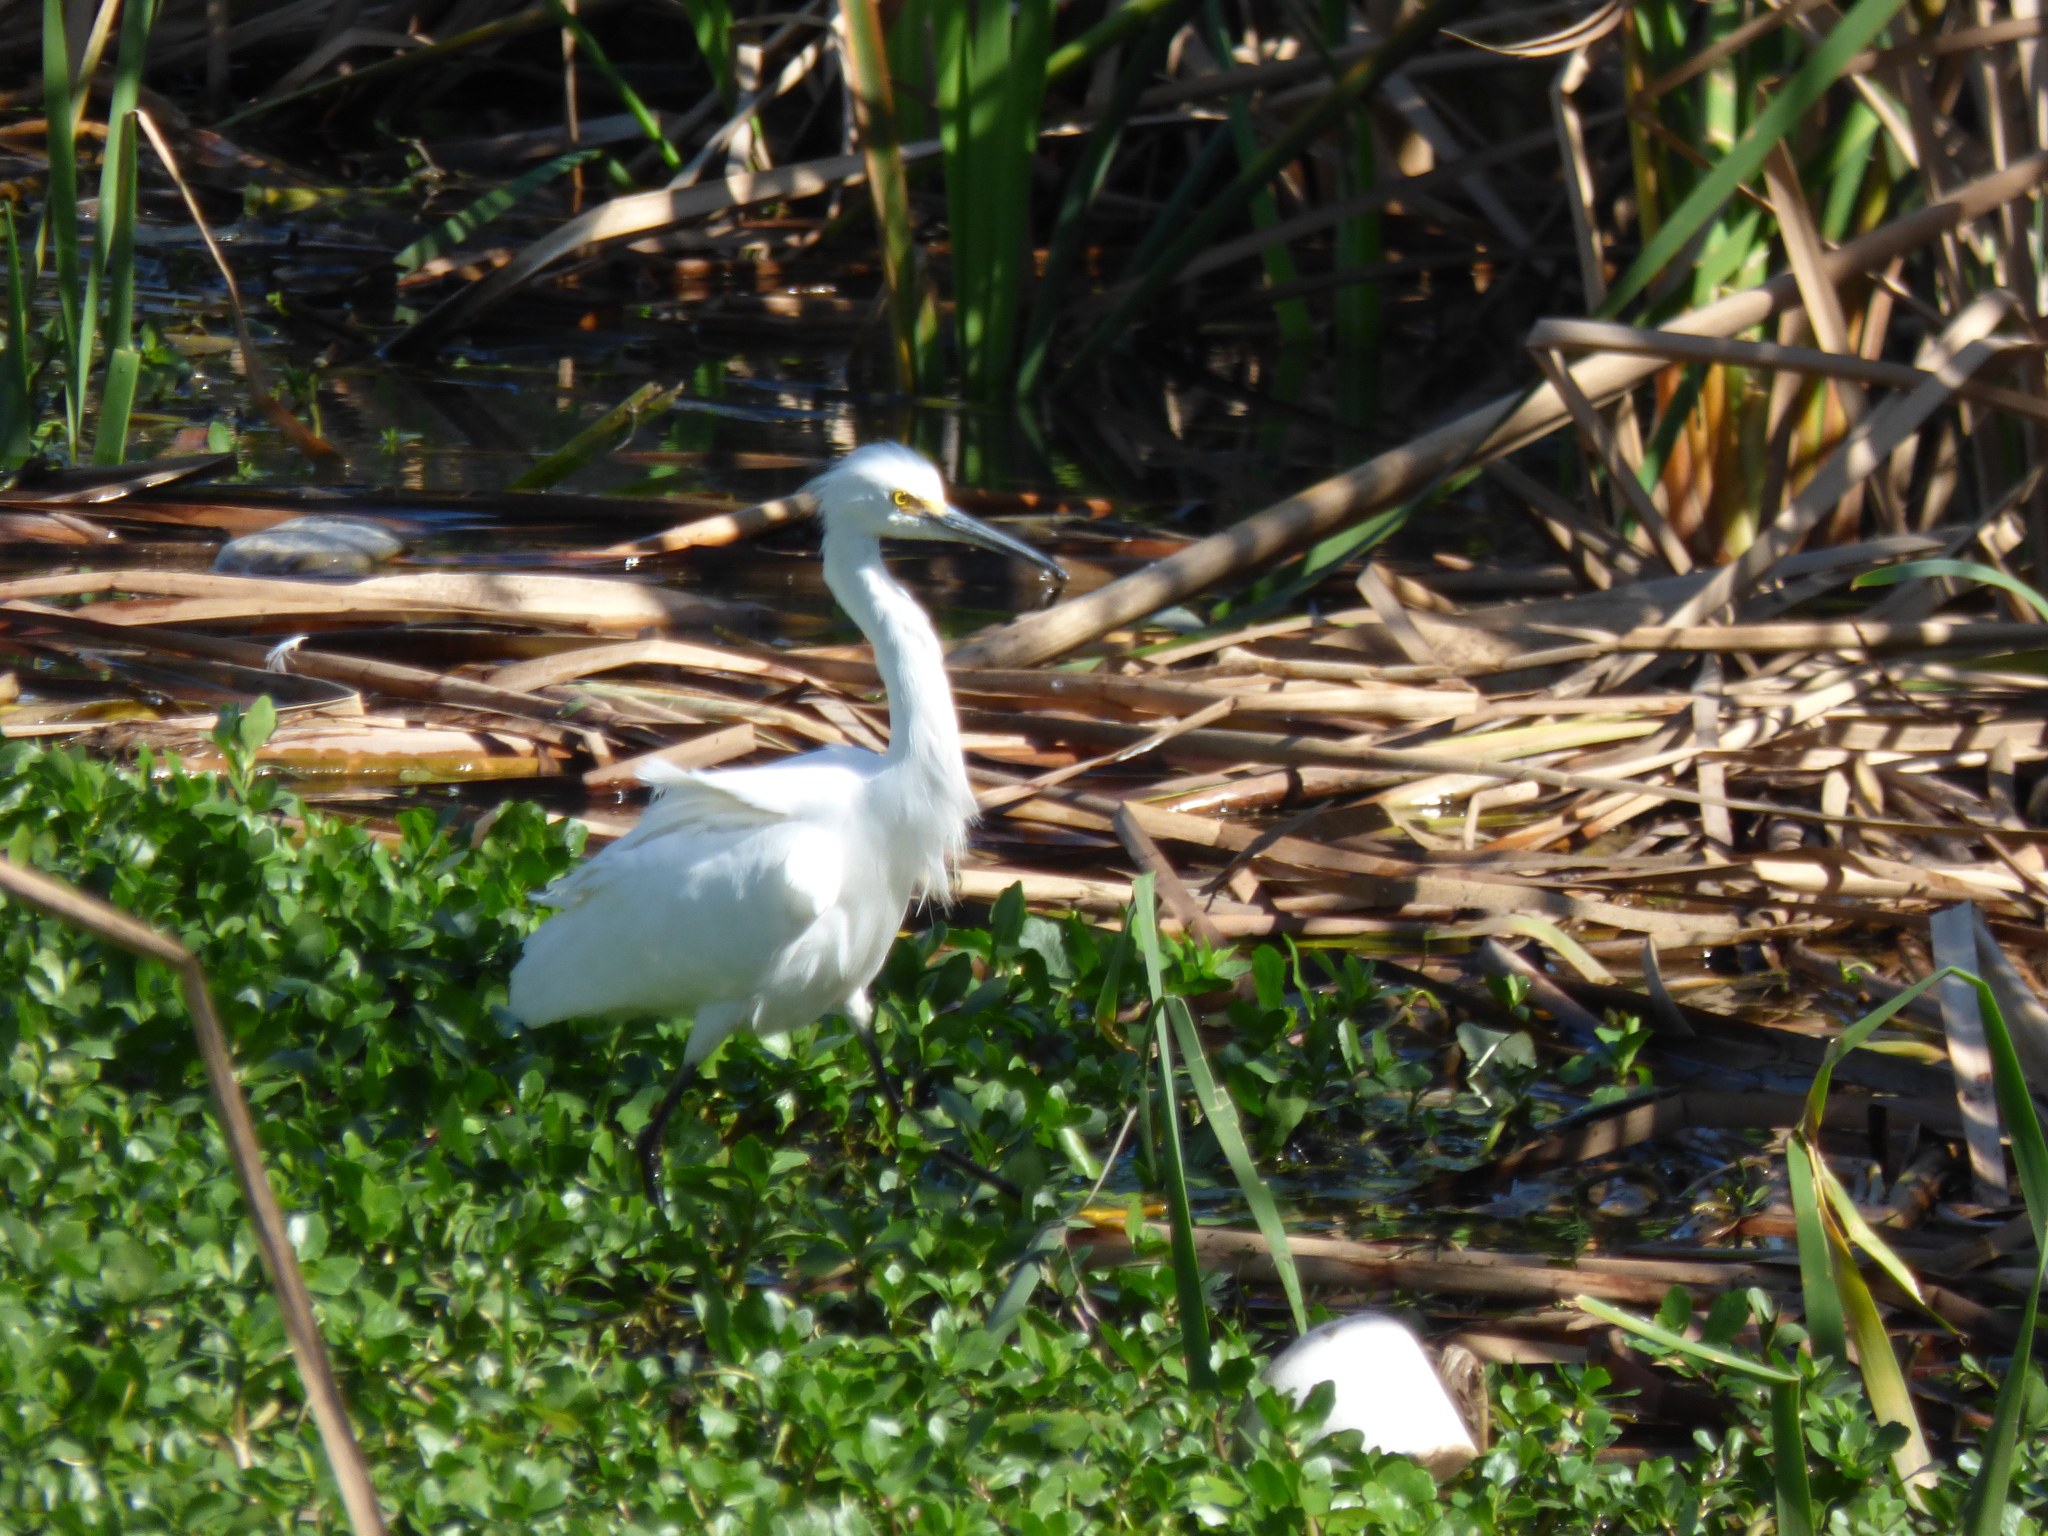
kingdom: Animalia
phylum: Chordata
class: Aves
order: Pelecaniformes
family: Ardeidae
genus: Egretta
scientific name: Egretta thula
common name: Snowy egret
